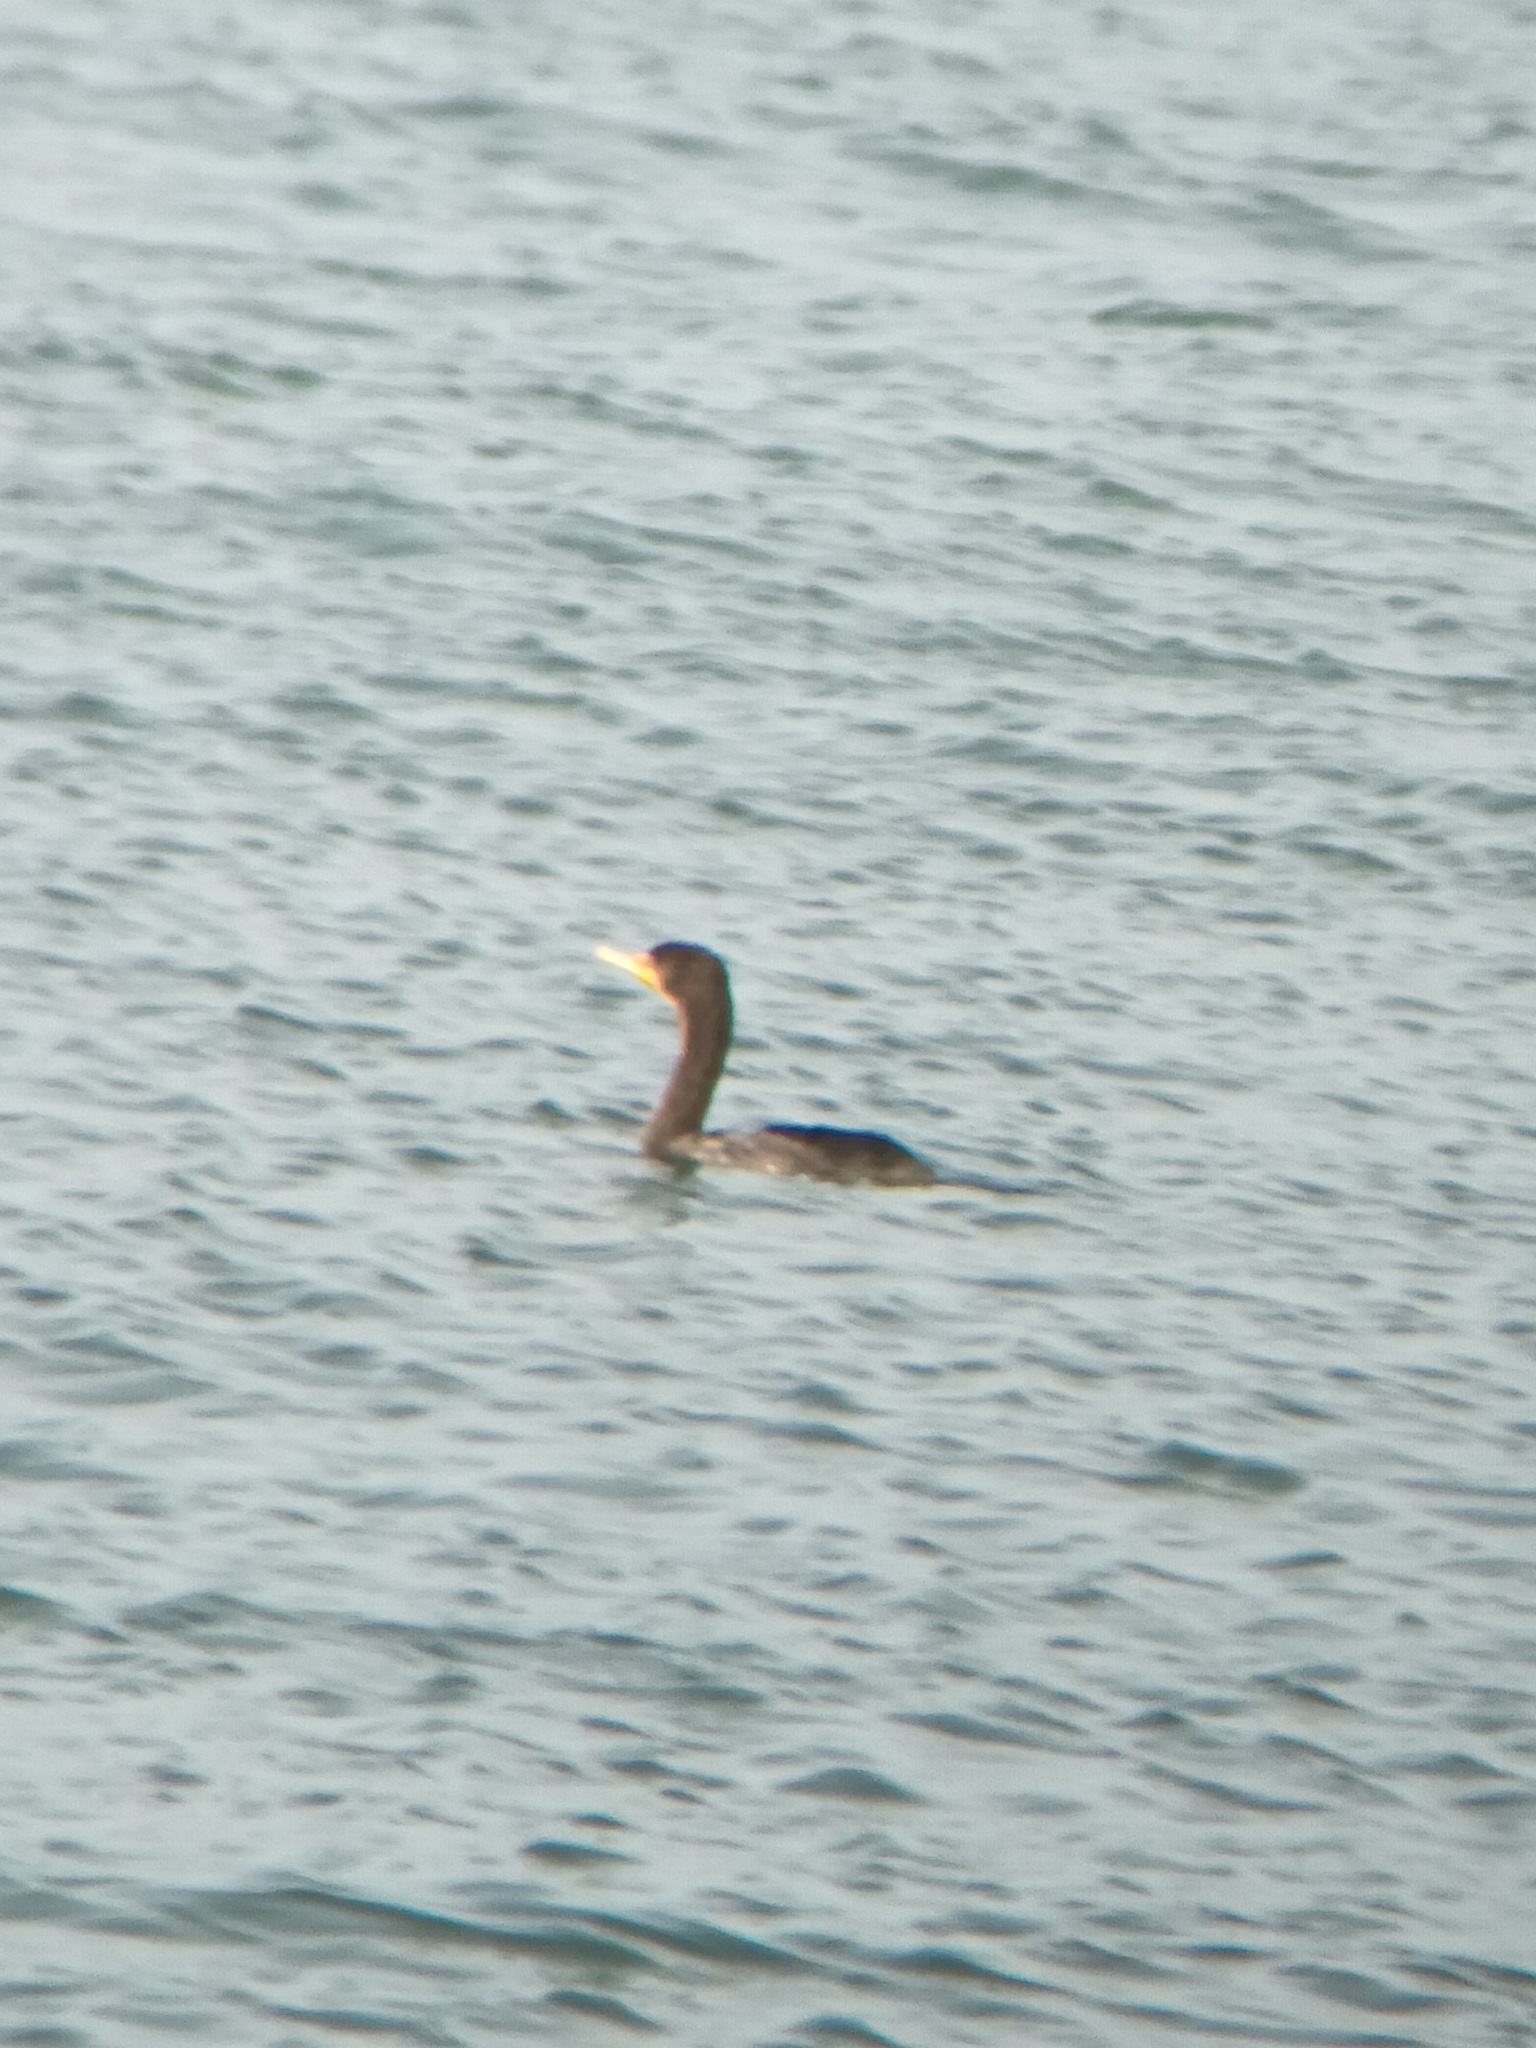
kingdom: Animalia
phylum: Chordata
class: Aves
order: Suliformes
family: Phalacrocoracidae
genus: Phalacrocorax
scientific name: Phalacrocorax auritus
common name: Double-crested cormorant
